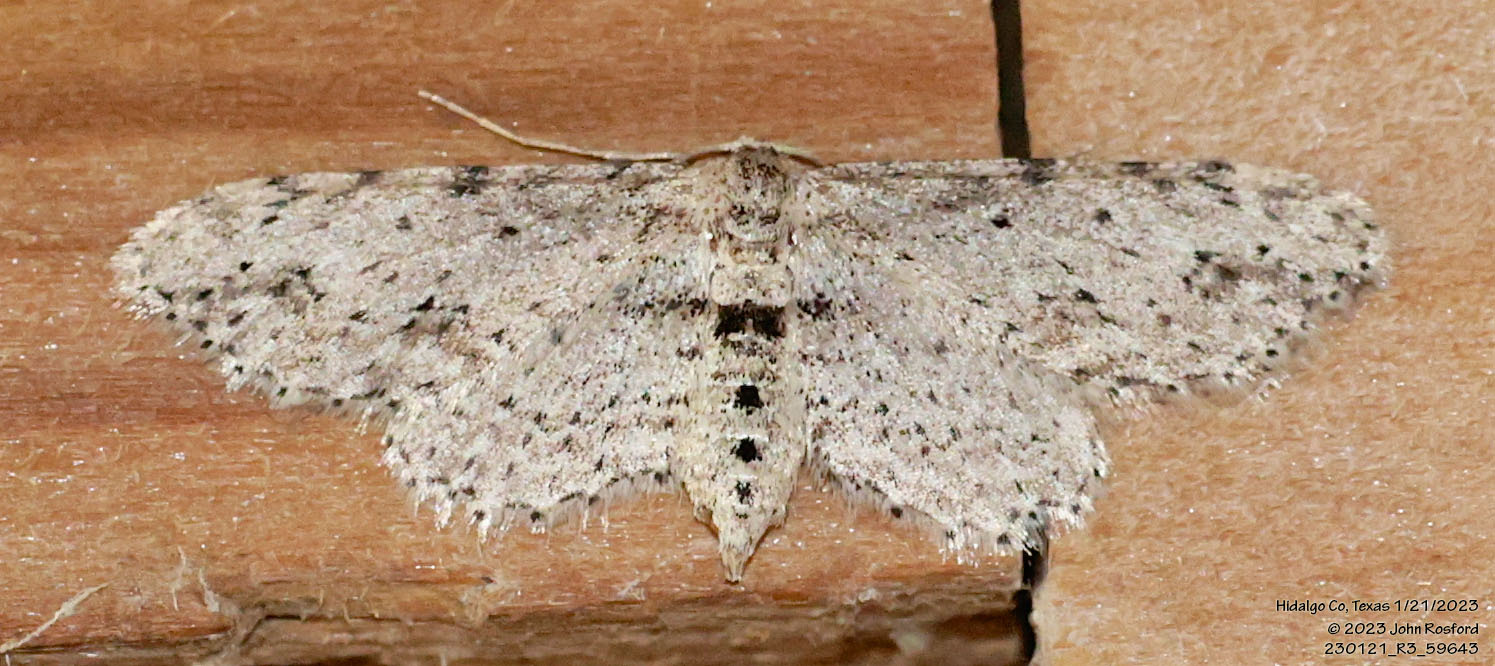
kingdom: Animalia
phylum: Arthropoda
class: Insecta
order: Lepidoptera
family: Geometridae
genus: Pimaphera
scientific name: Pimaphera sparsaria
